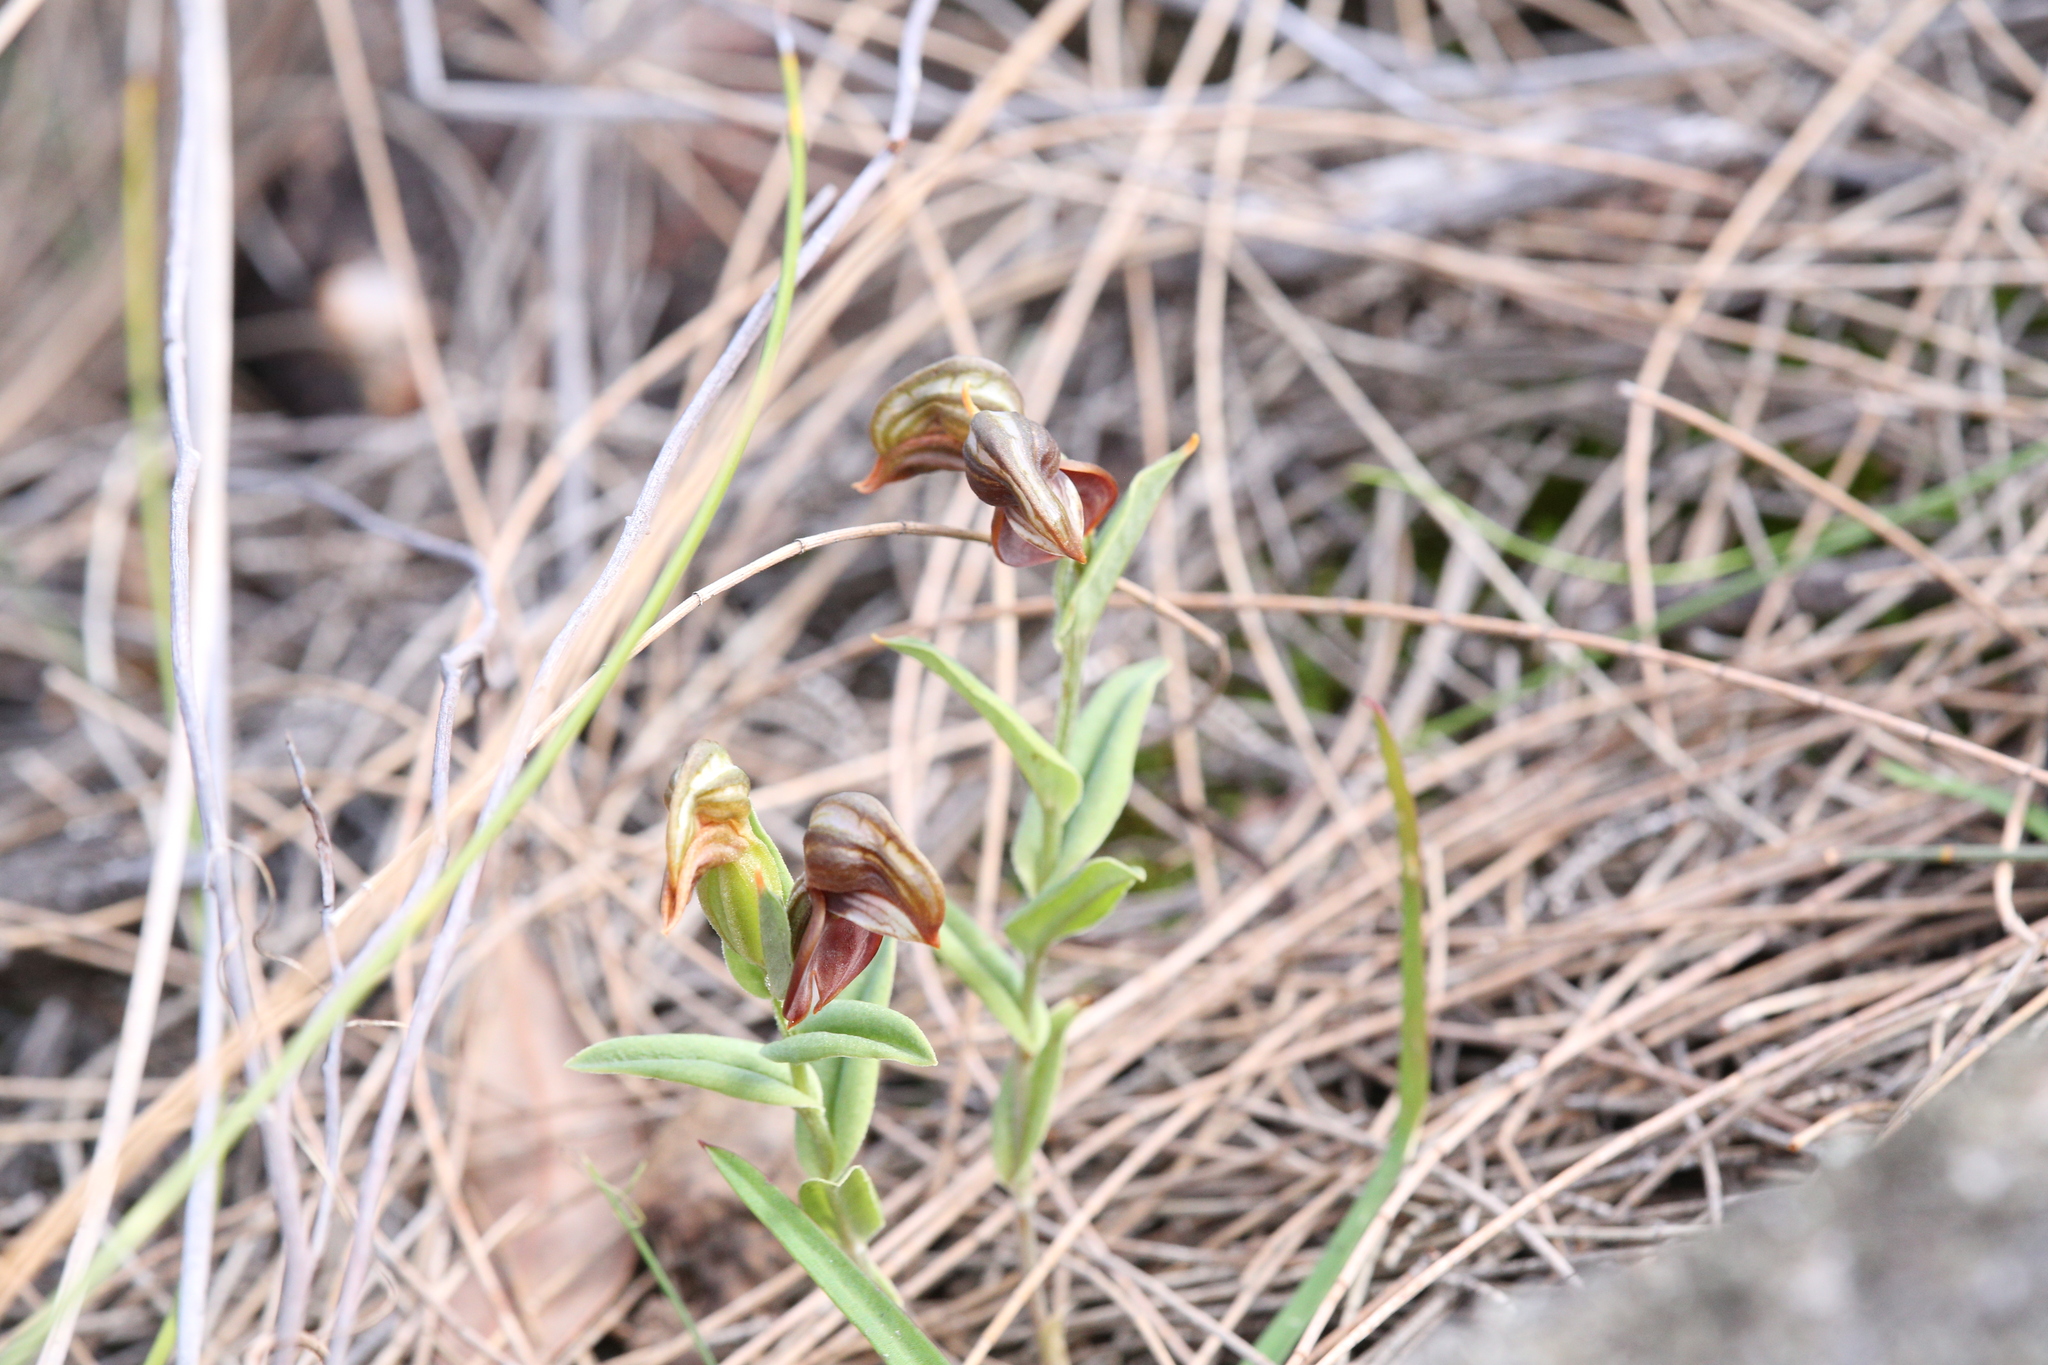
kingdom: Plantae
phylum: Tracheophyta
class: Liliopsida
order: Asparagales
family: Orchidaceae
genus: Pterostylis
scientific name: Pterostylis sanguinea
